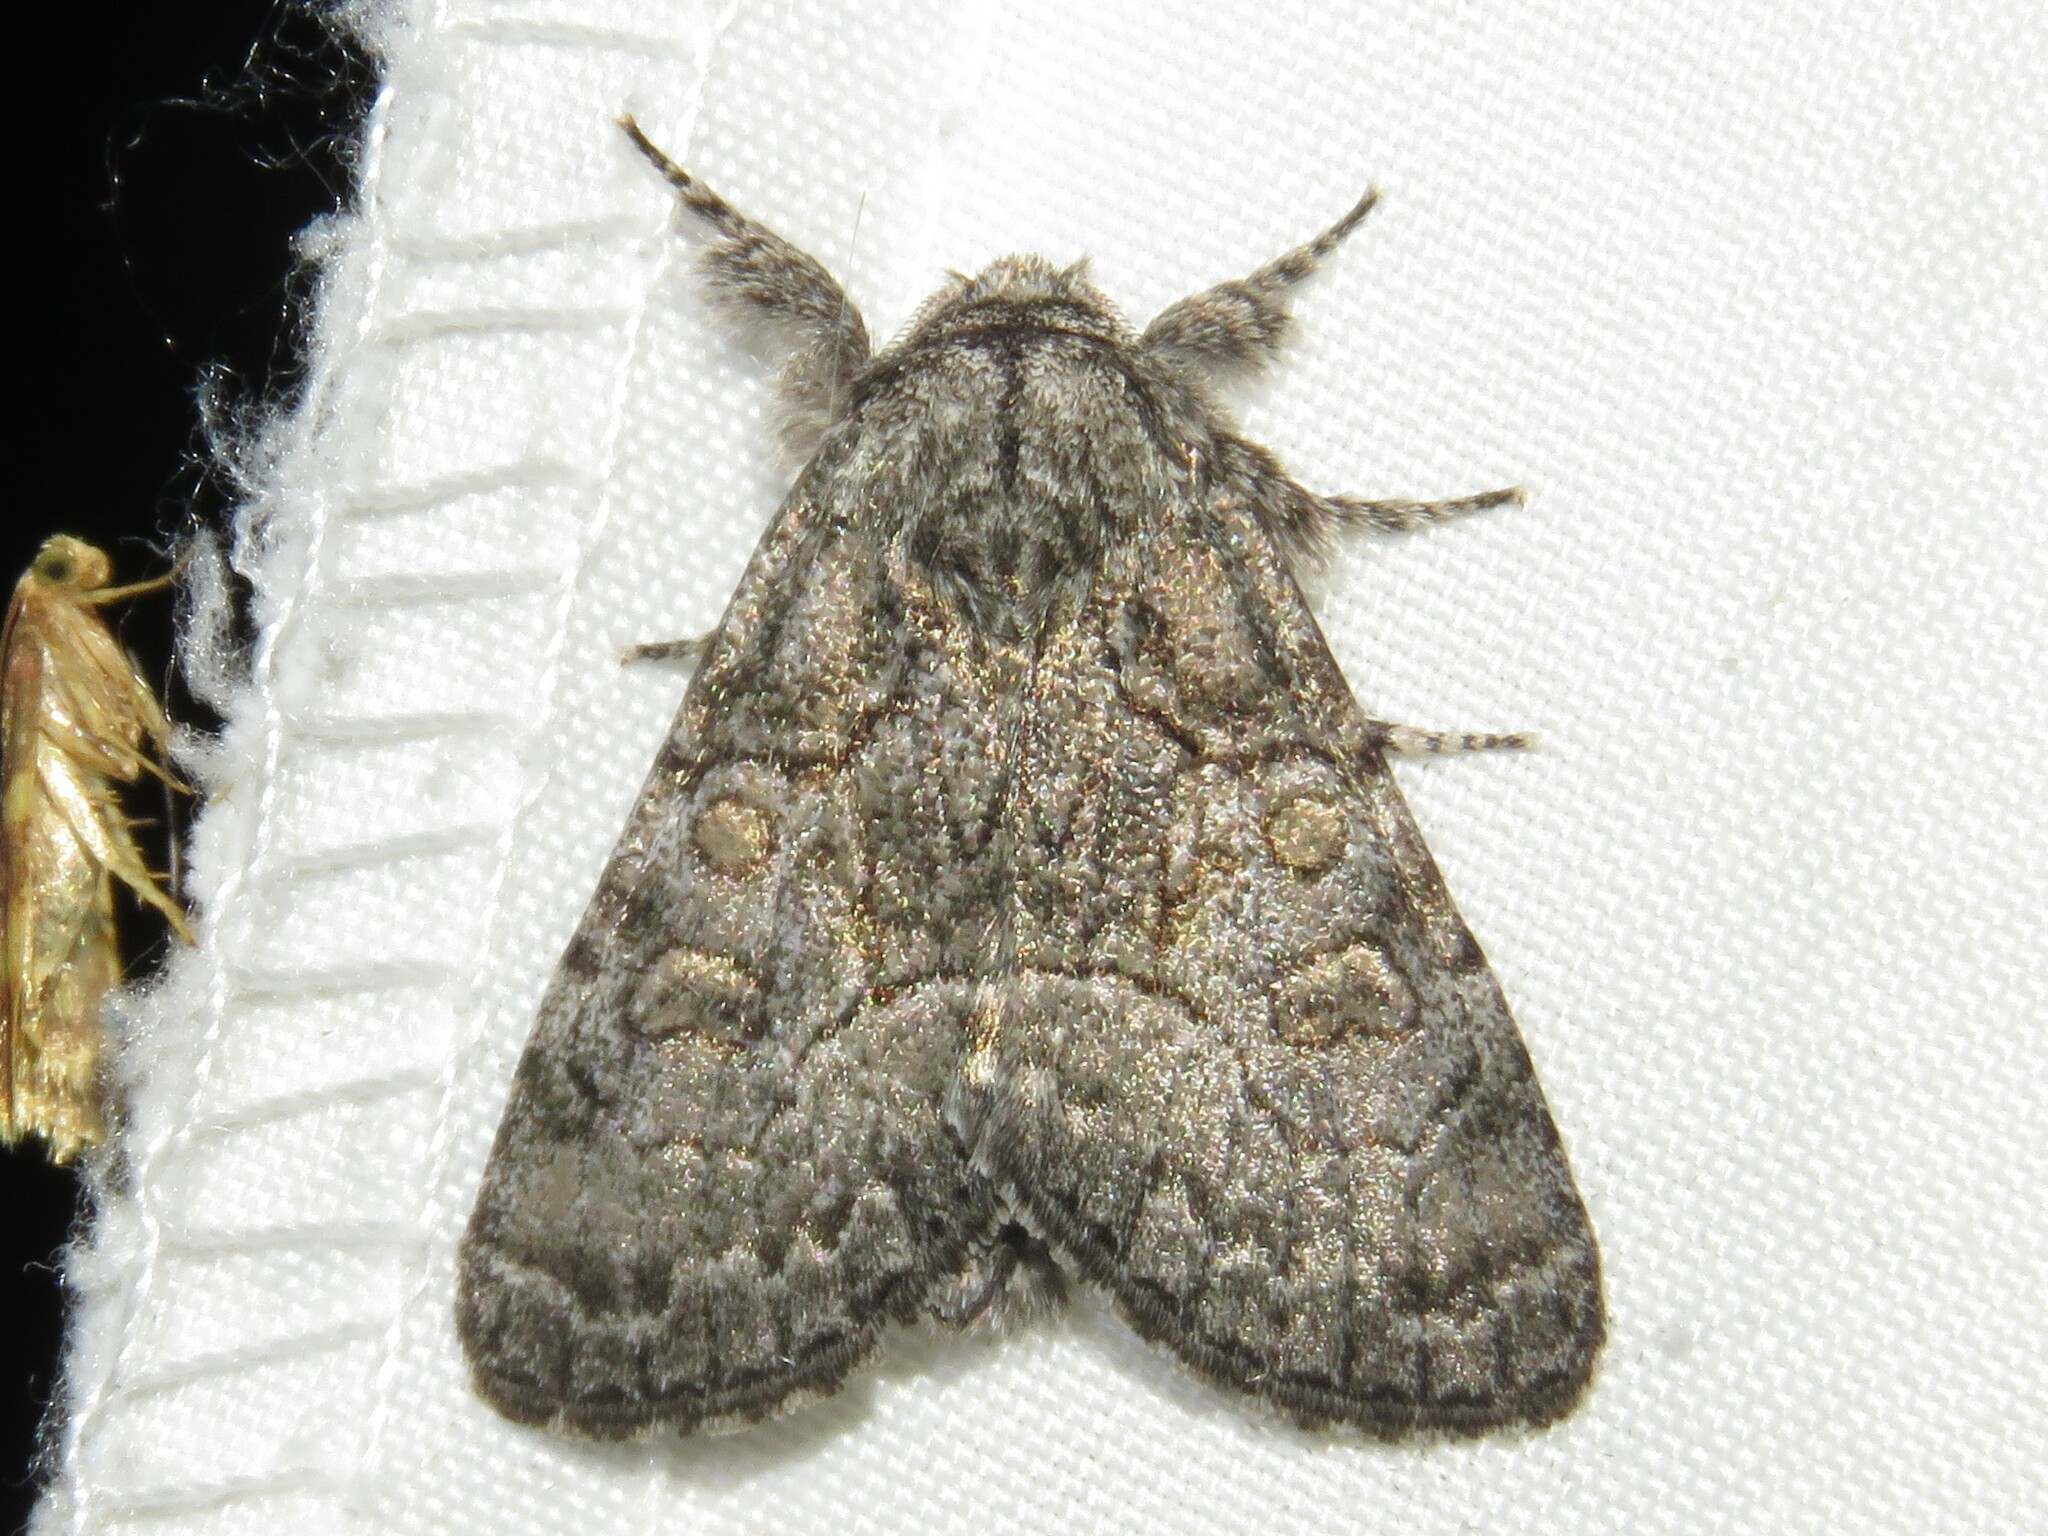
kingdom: Animalia
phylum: Arthropoda
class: Insecta
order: Lepidoptera
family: Noctuidae
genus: Raphia
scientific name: Raphia frater
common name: Brother
